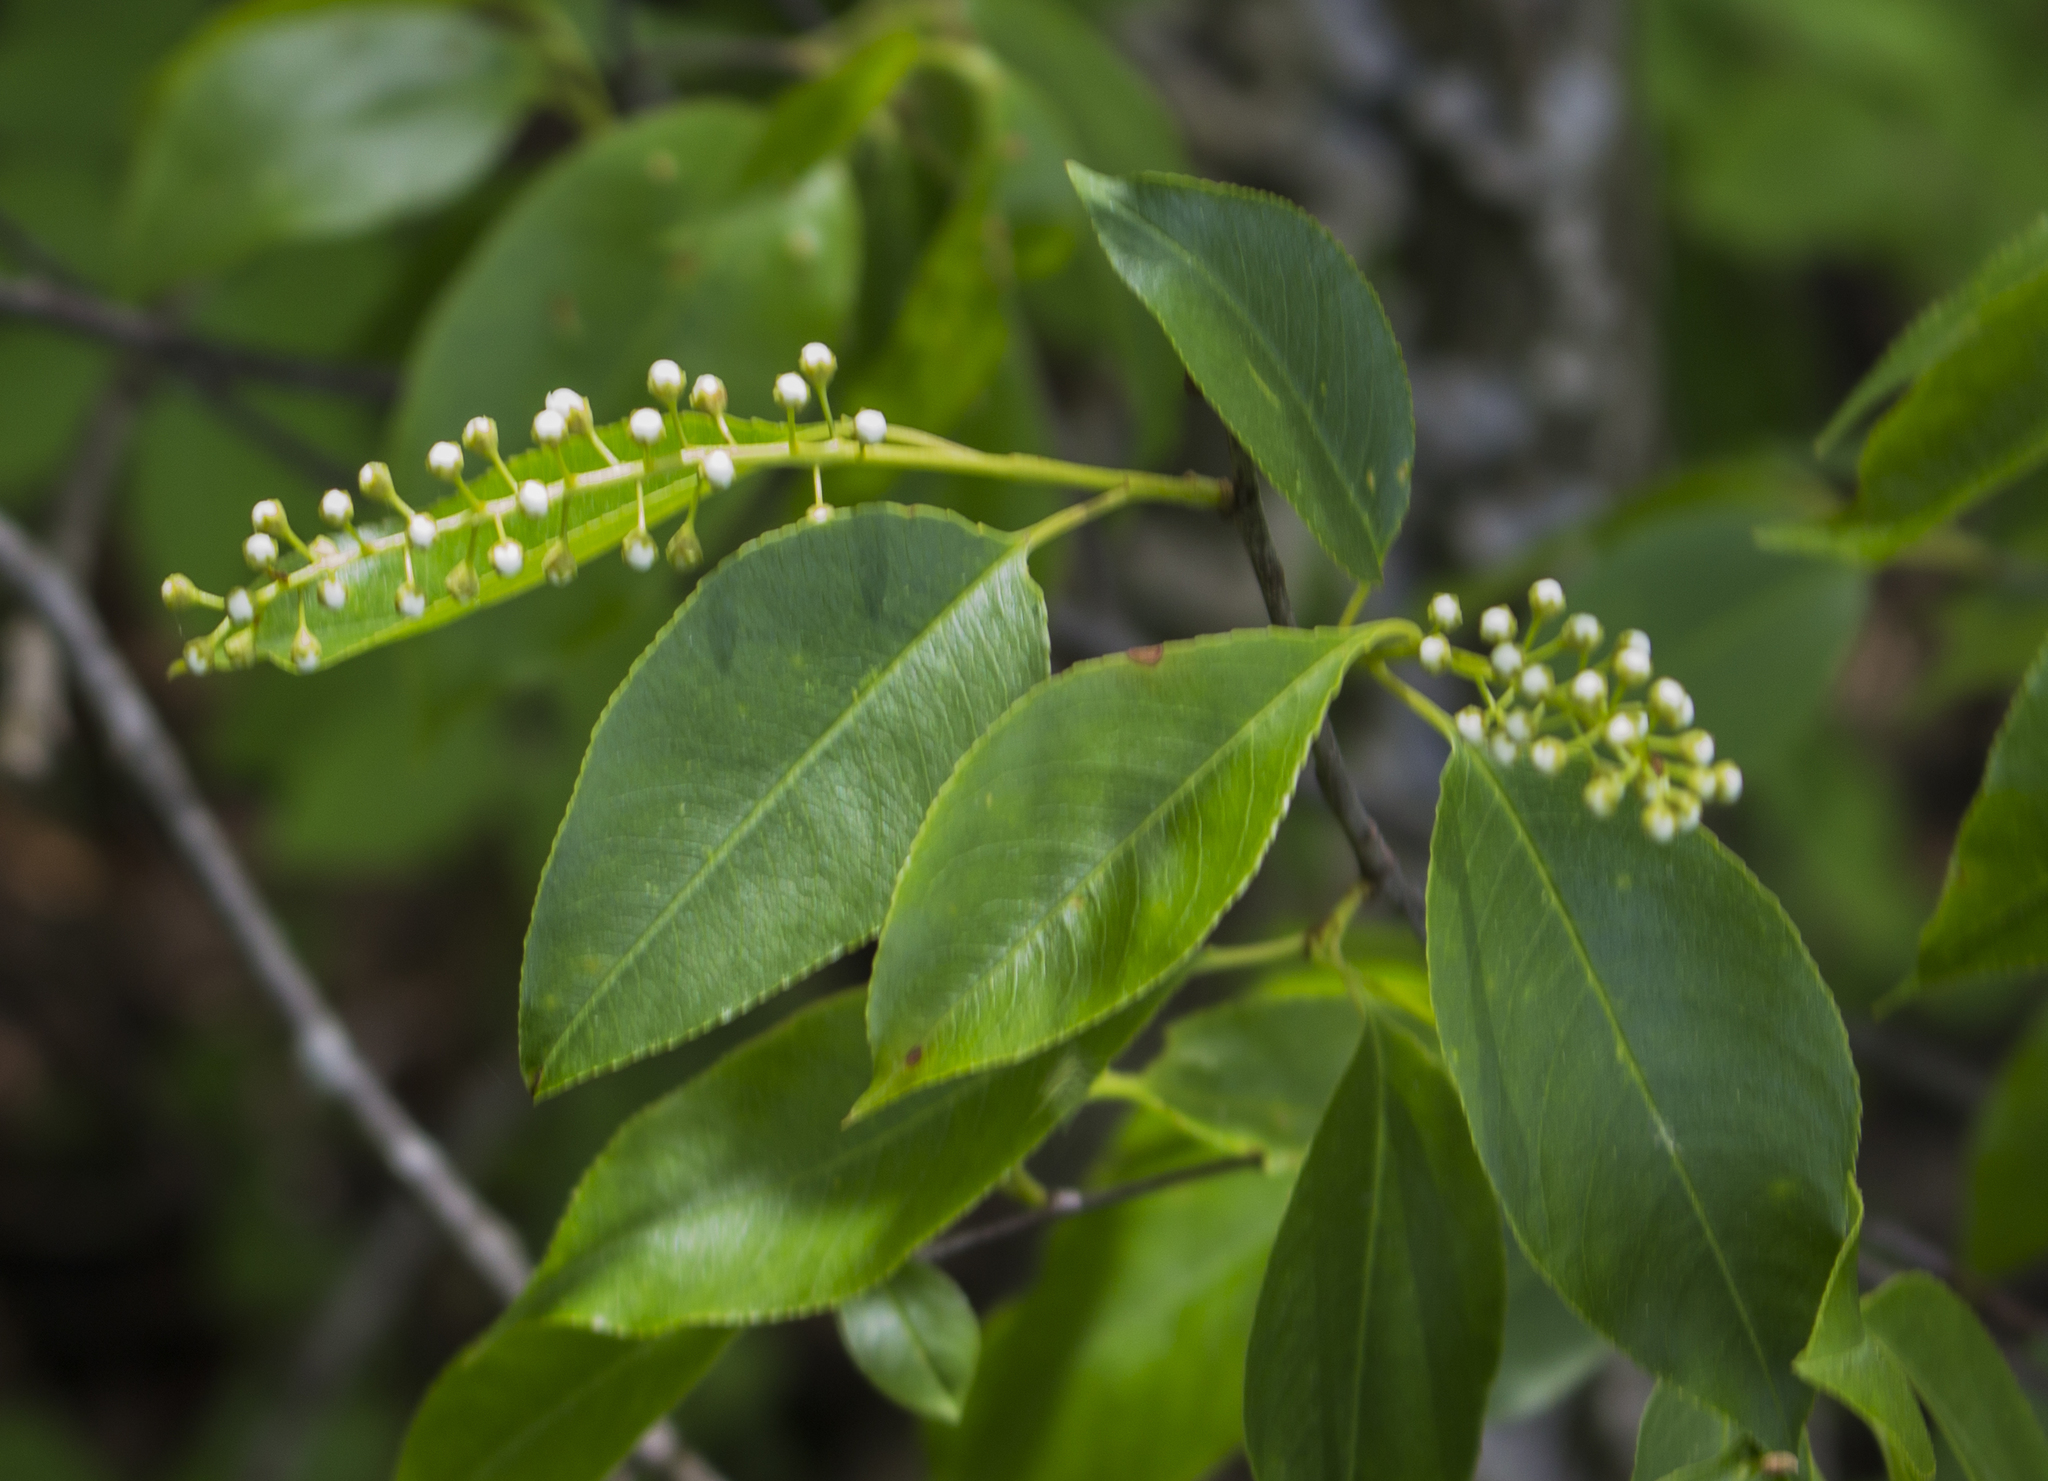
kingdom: Plantae
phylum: Tracheophyta
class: Magnoliopsida
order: Rosales
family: Rosaceae
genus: Prunus
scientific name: Prunus serotina
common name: Black cherry
